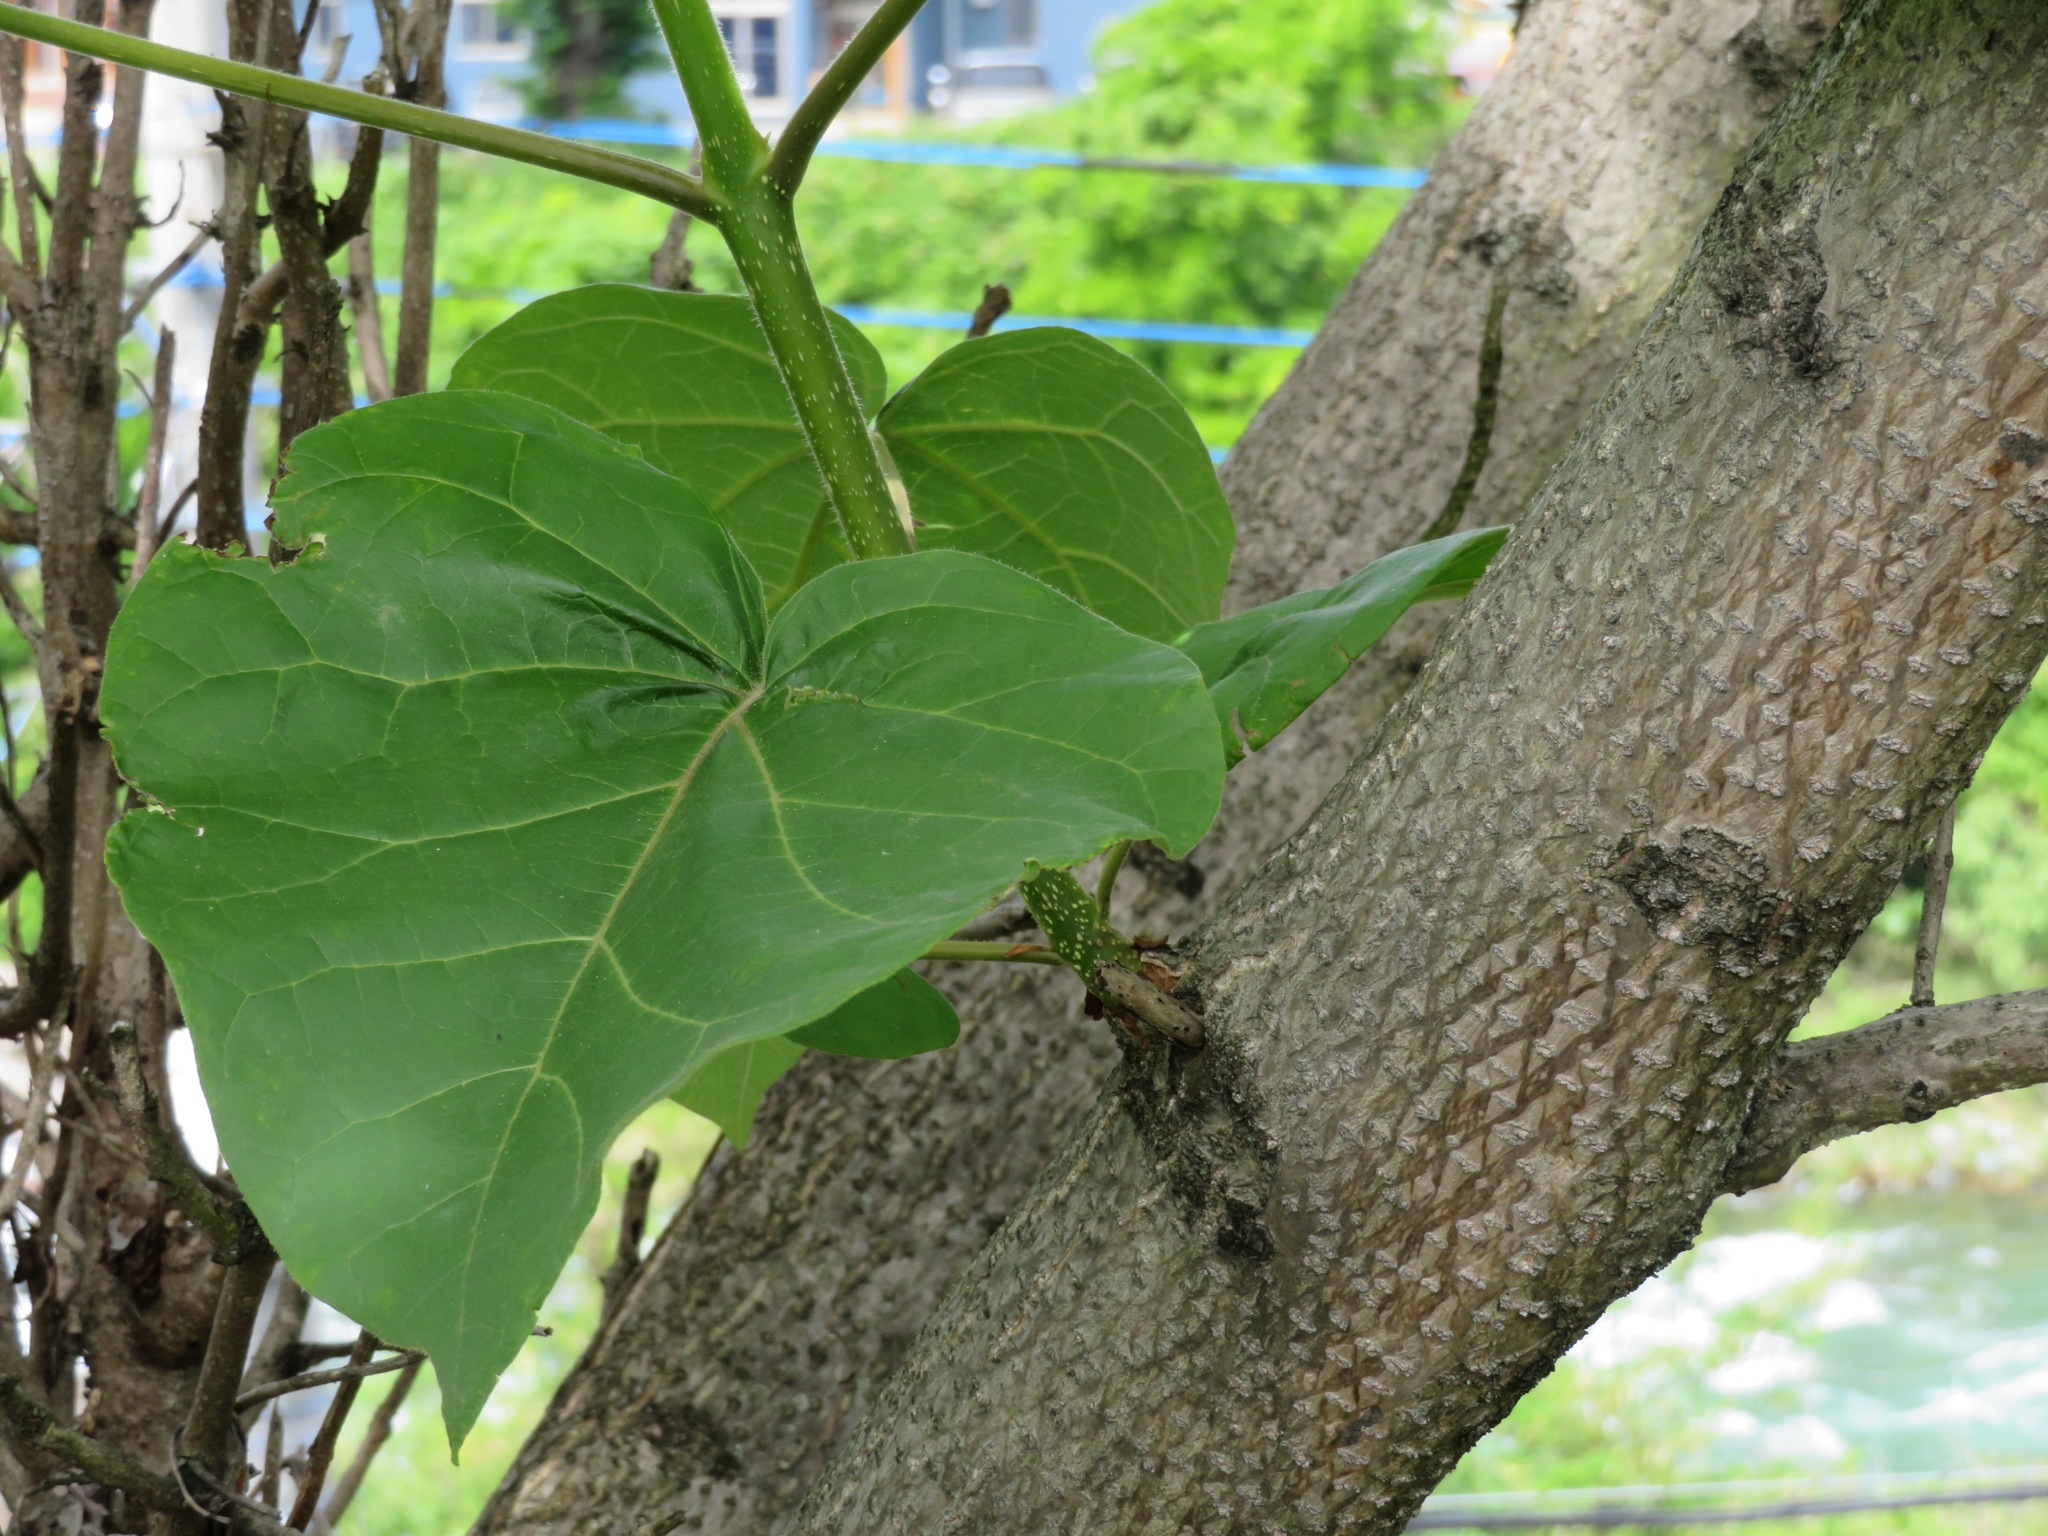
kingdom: Plantae
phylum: Tracheophyta
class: Magnoliopsida
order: Lamiales
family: Paulowniaceae
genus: Paulownia
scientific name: Paulownia tomentosa
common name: Foxglove-tree
